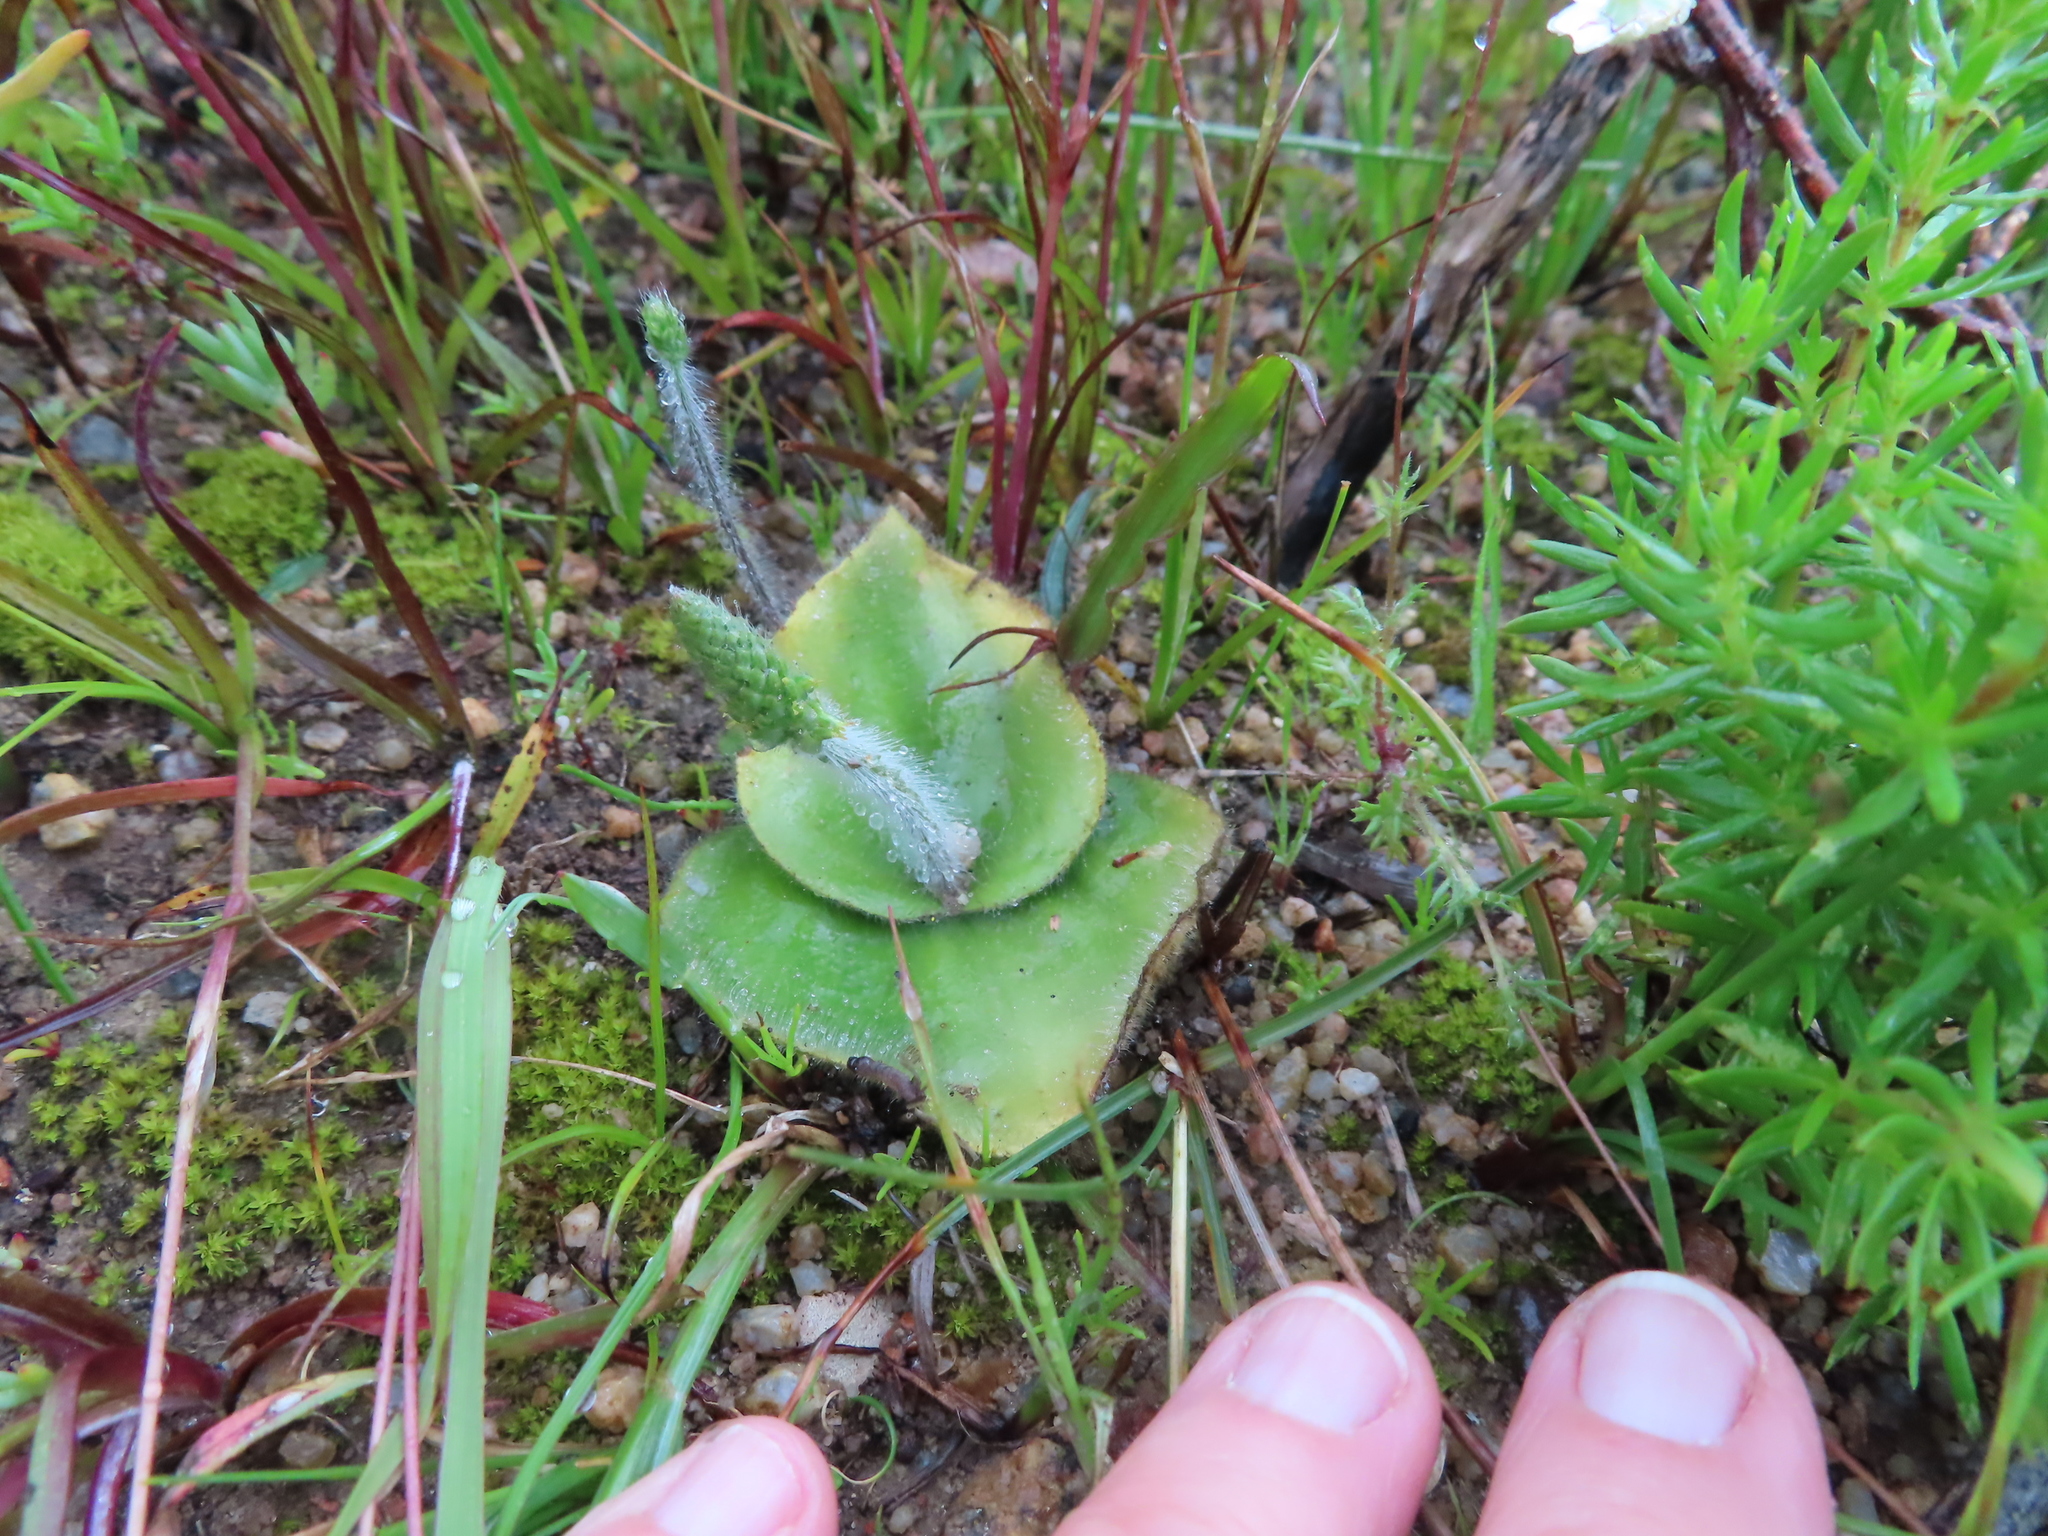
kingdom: Plantae
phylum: Tracheophyta
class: Liliopsida
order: Asparagales
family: Orchidaceae
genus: Holothrix
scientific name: Holothrix villosa
